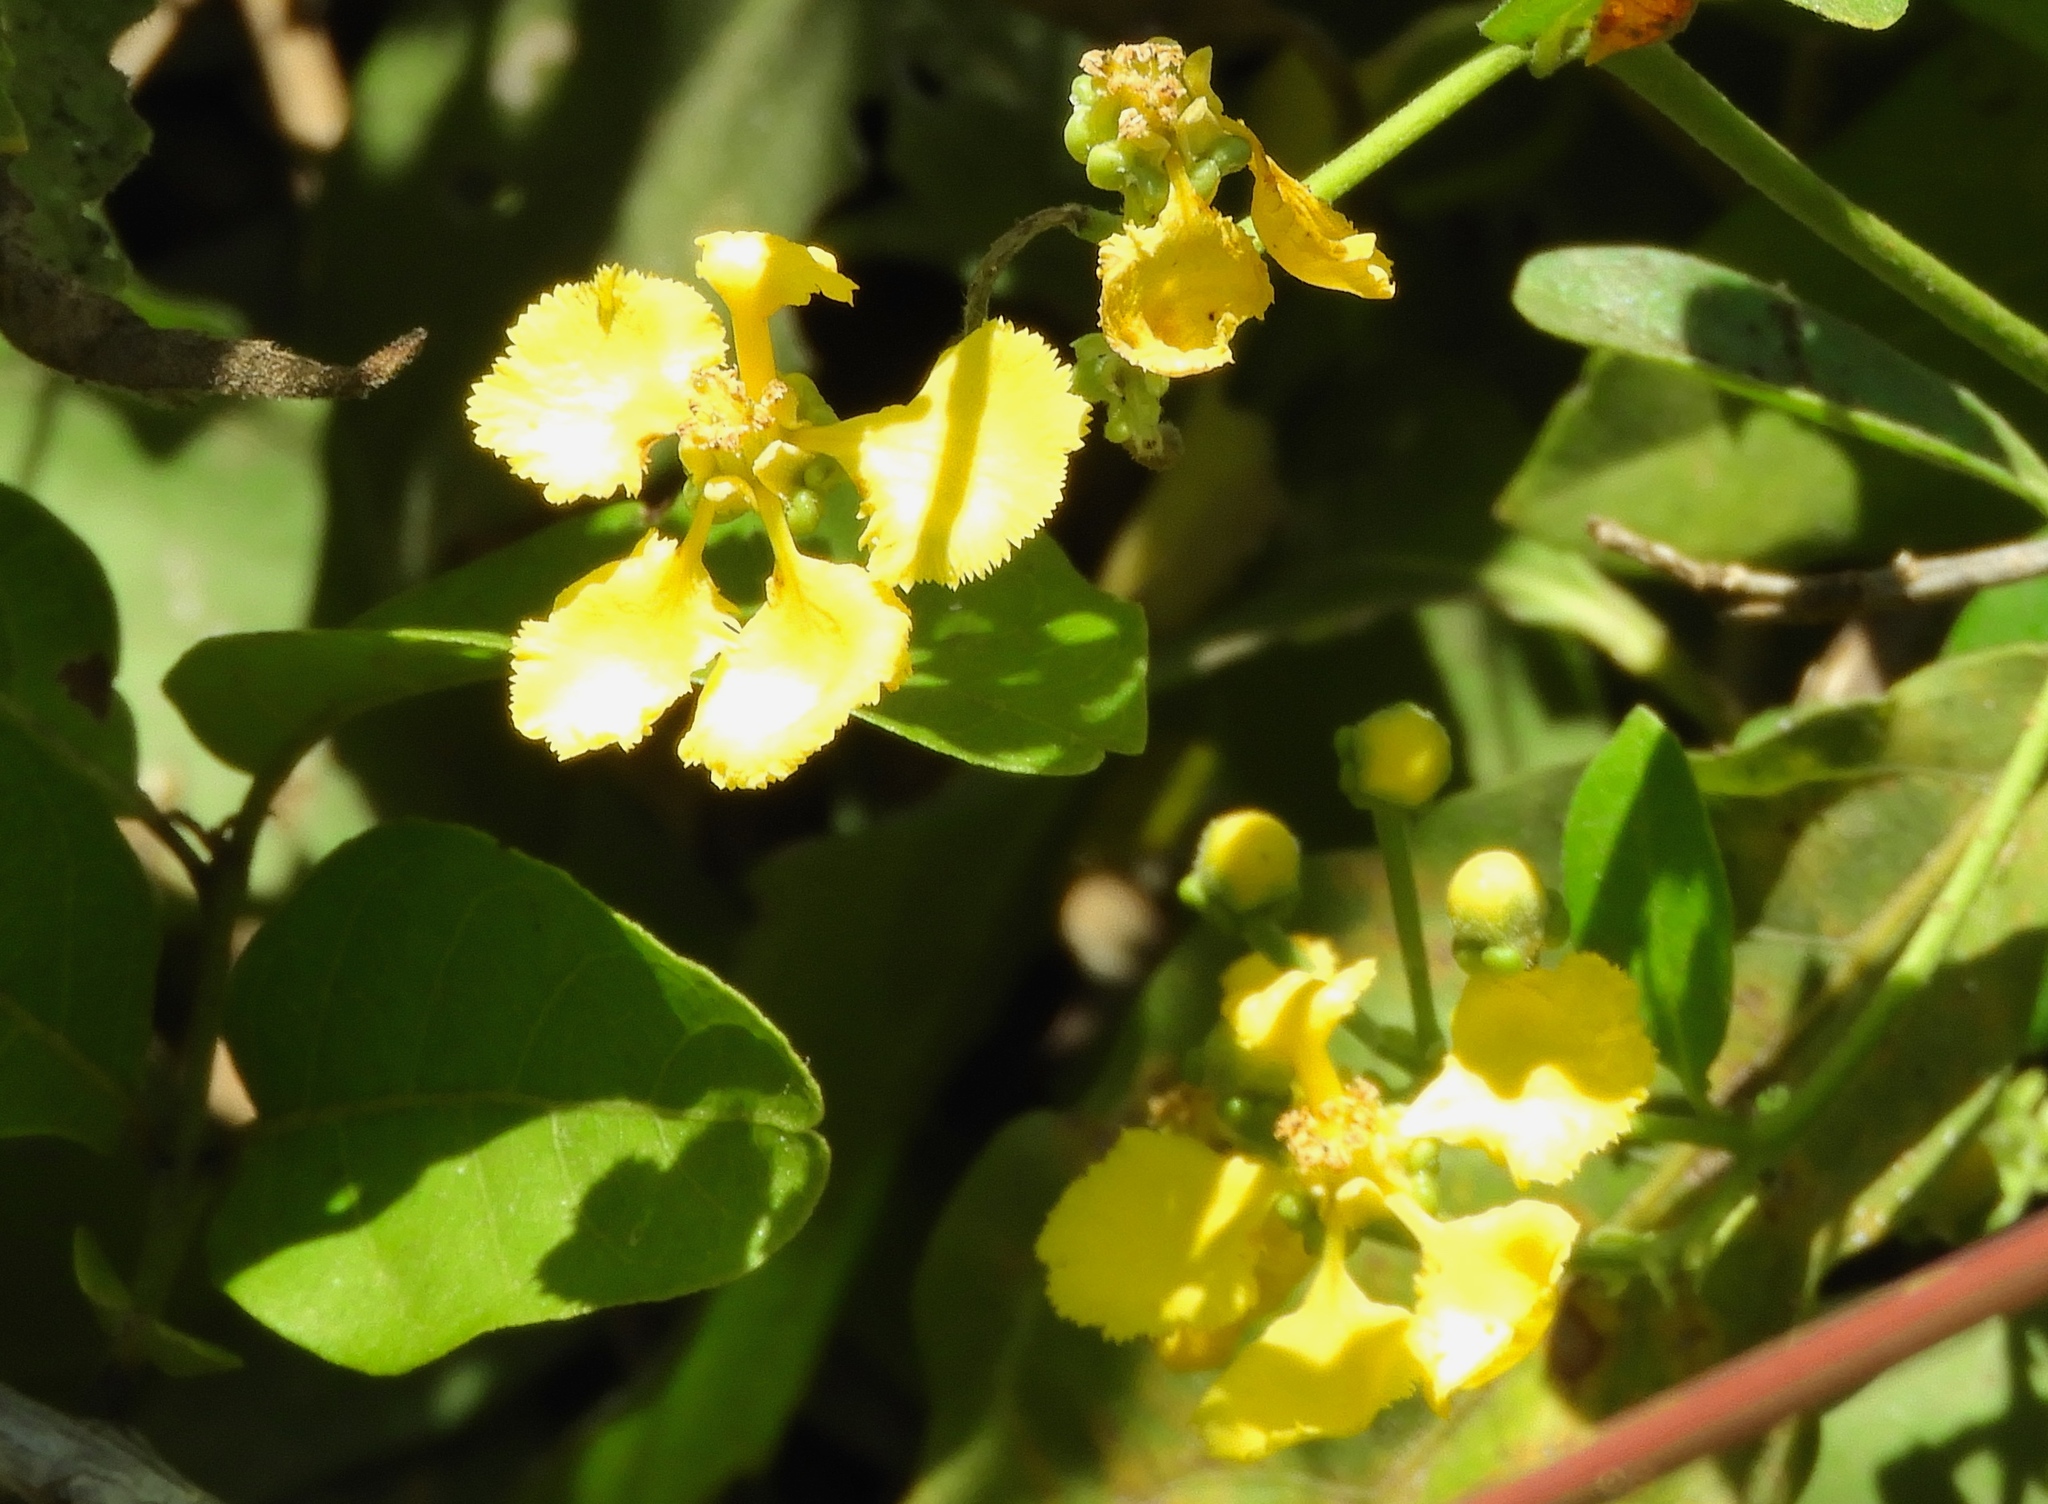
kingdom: Plantae
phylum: Tracheophyta
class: Magnoliopsida
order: Malpighiales
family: Malpighiaceae
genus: Callaeum
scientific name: Callaeum macropterum
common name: Mexican butterfly-vine
